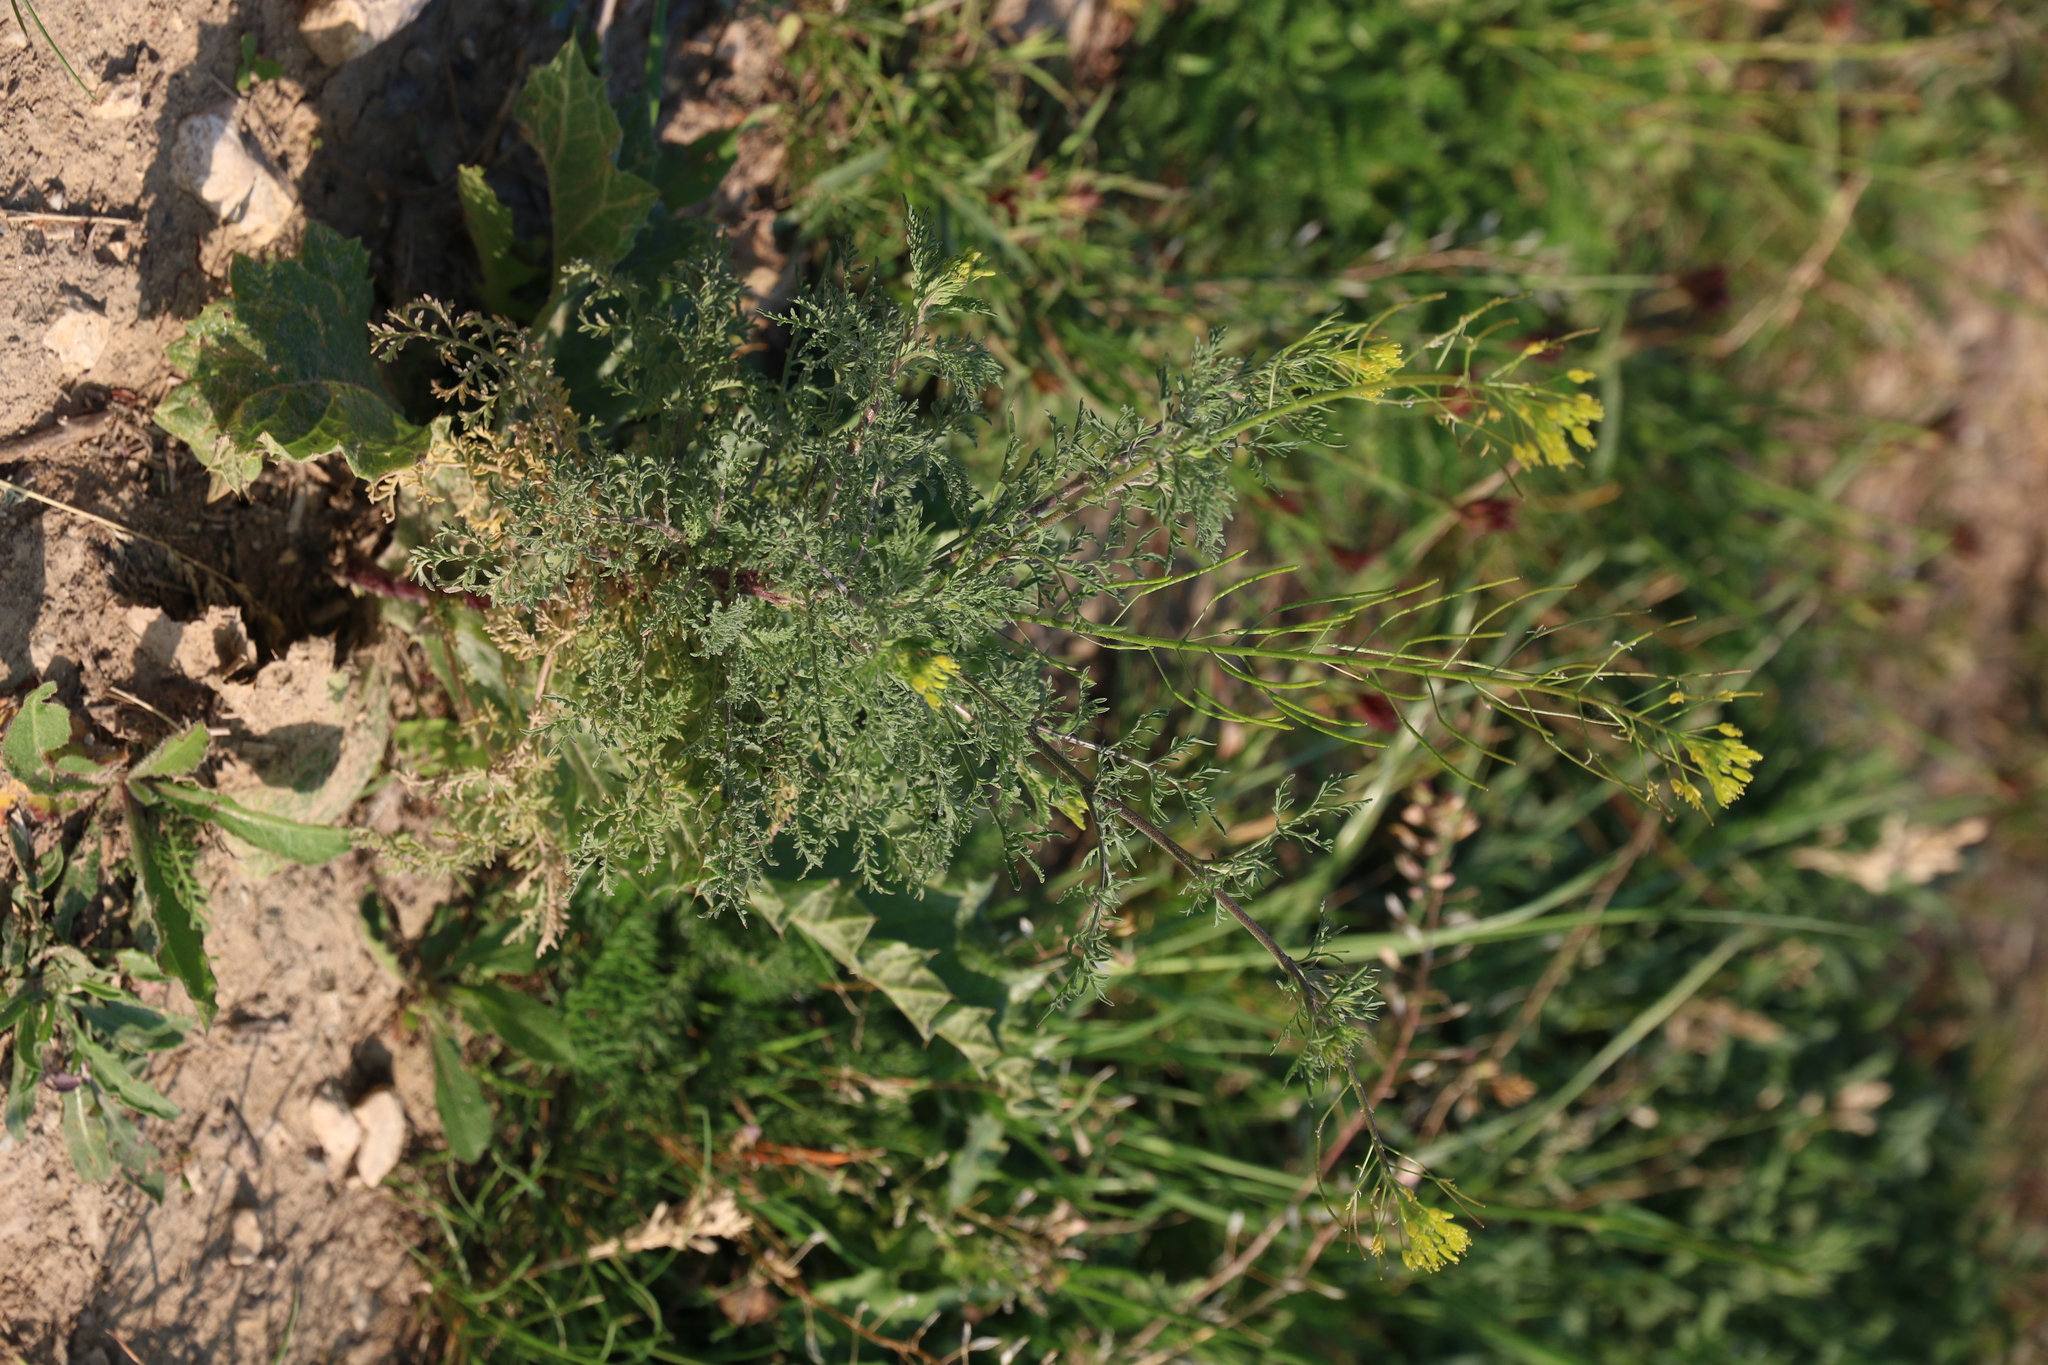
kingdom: Plantae
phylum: Tracheophyta
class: Magnoliopsida
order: Brassicales
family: Brassicaceae
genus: Descurainia
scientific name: Descurainia sophia
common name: Flixweed
